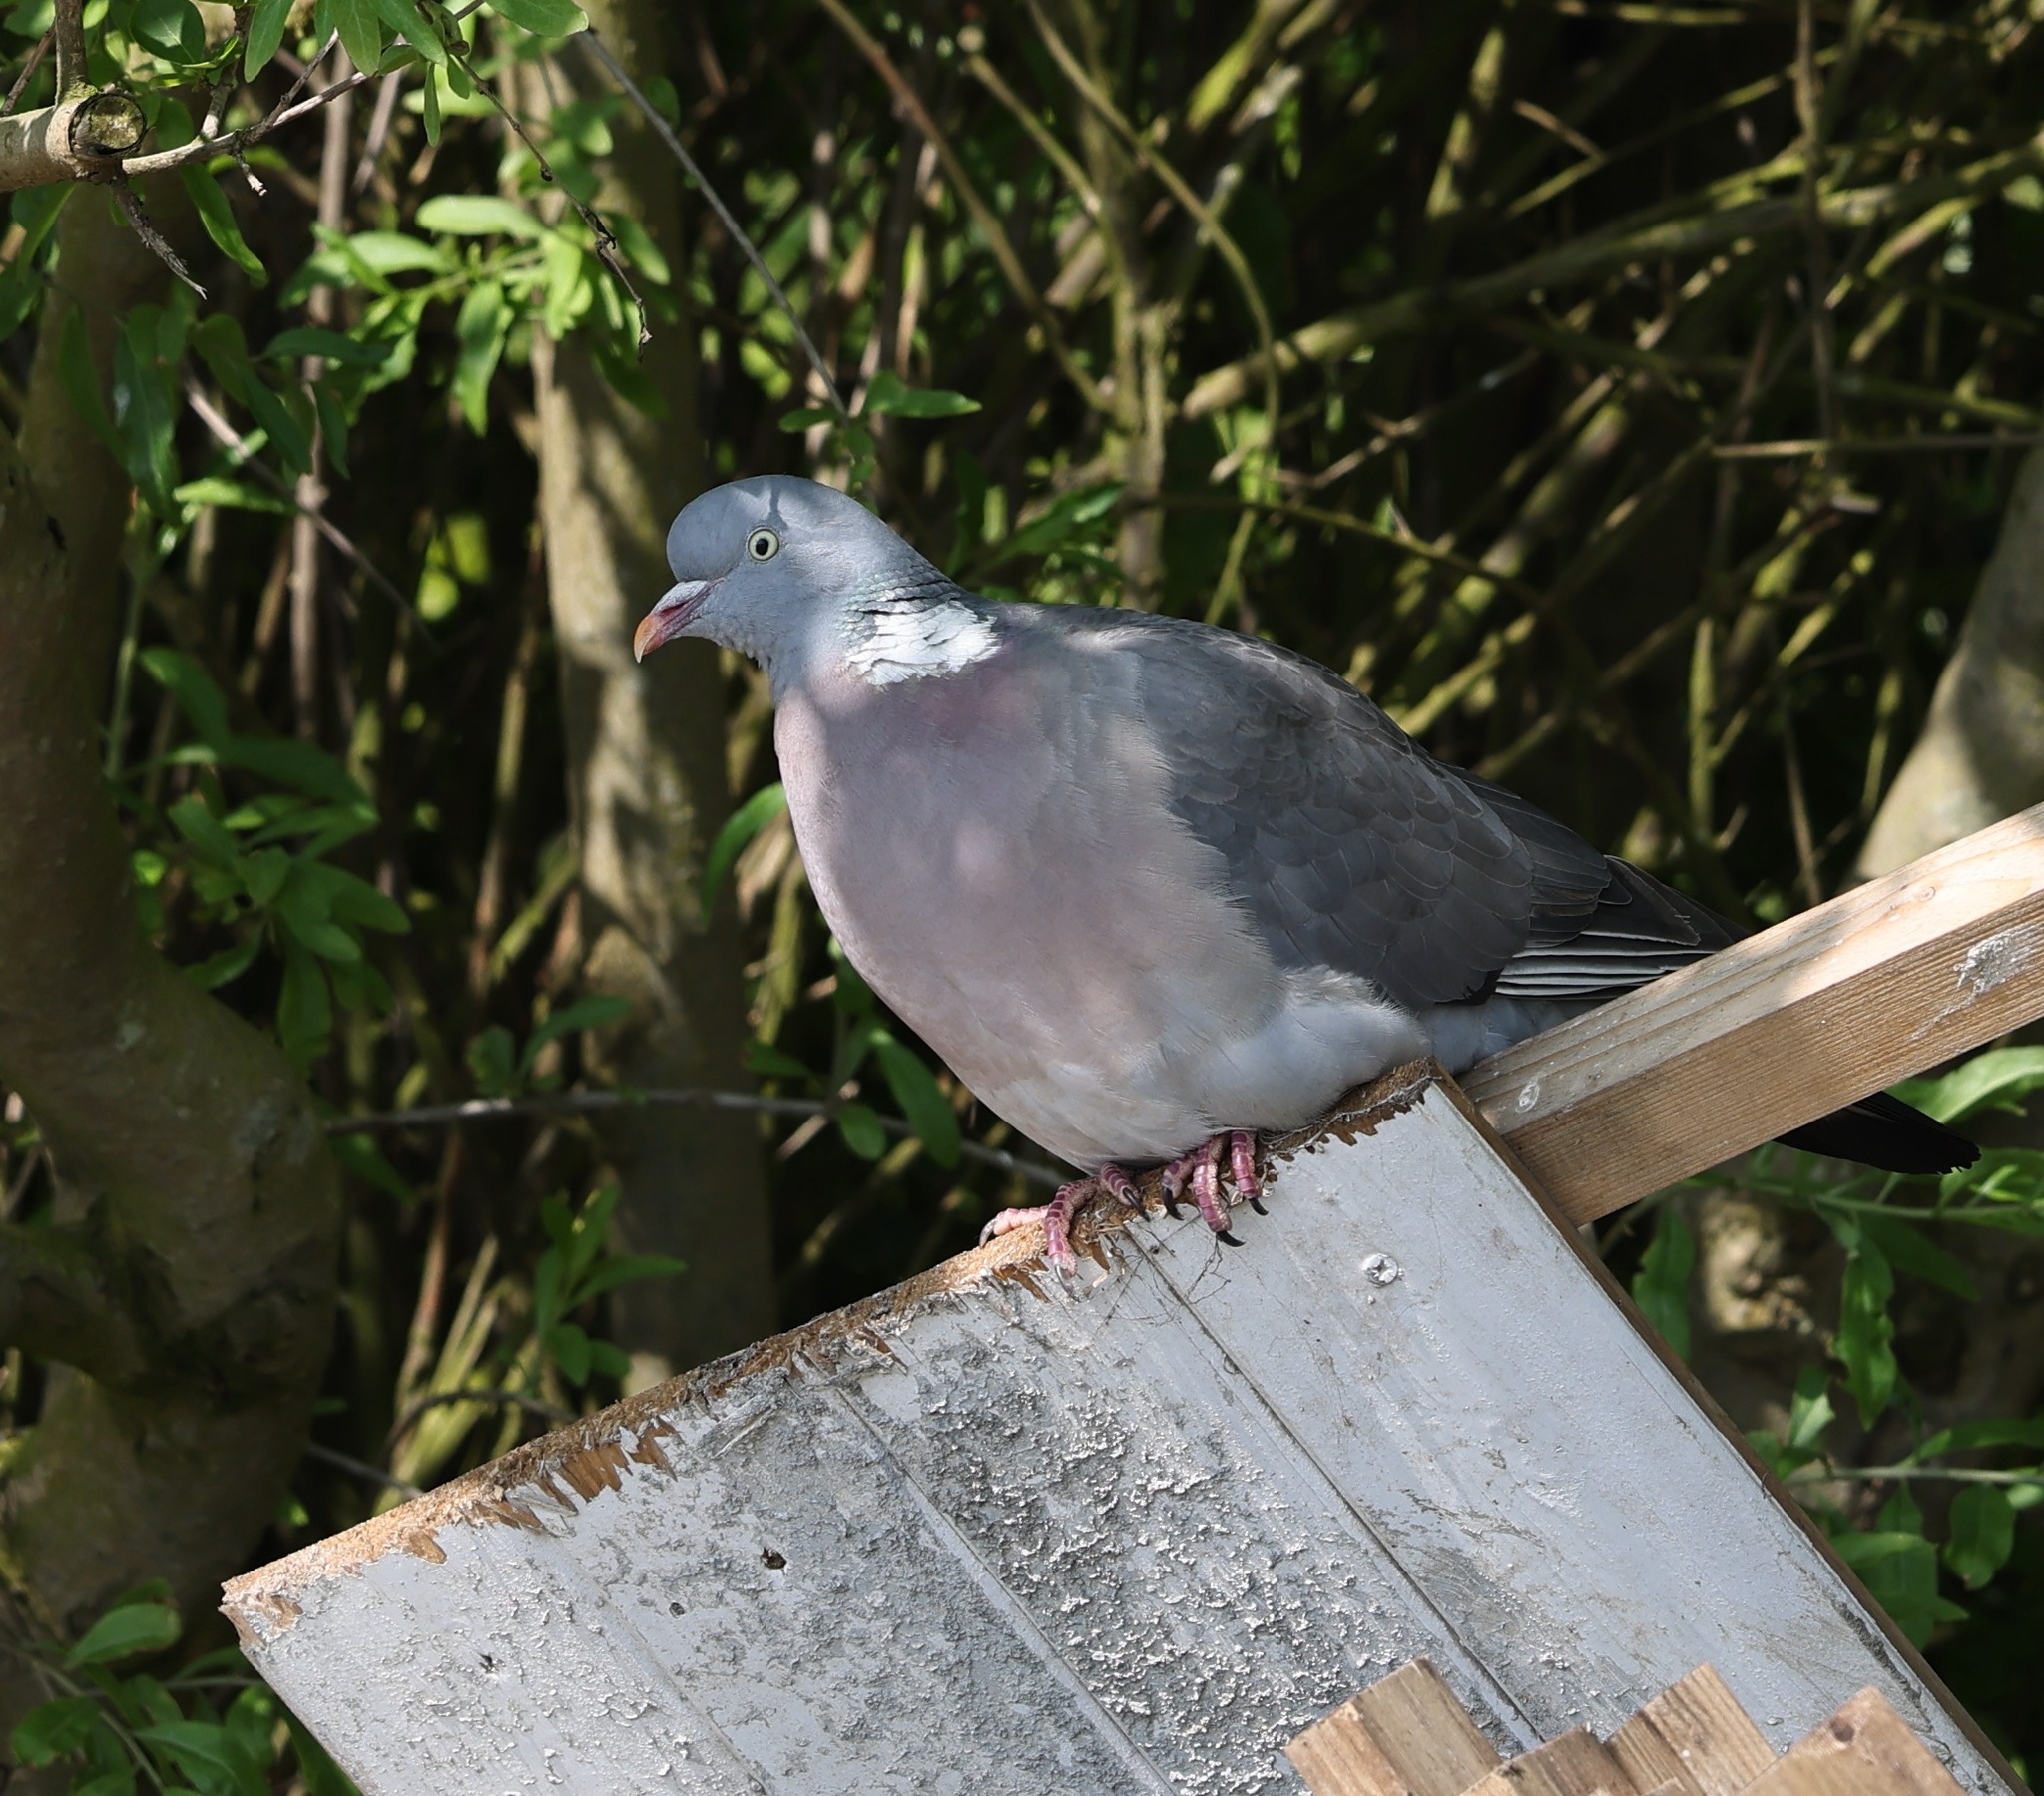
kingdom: Animalia
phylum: Chordata
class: Aves
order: Columbiformes
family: Columbidae
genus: Columba
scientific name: Columba palumbus
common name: Common wood pigeon
